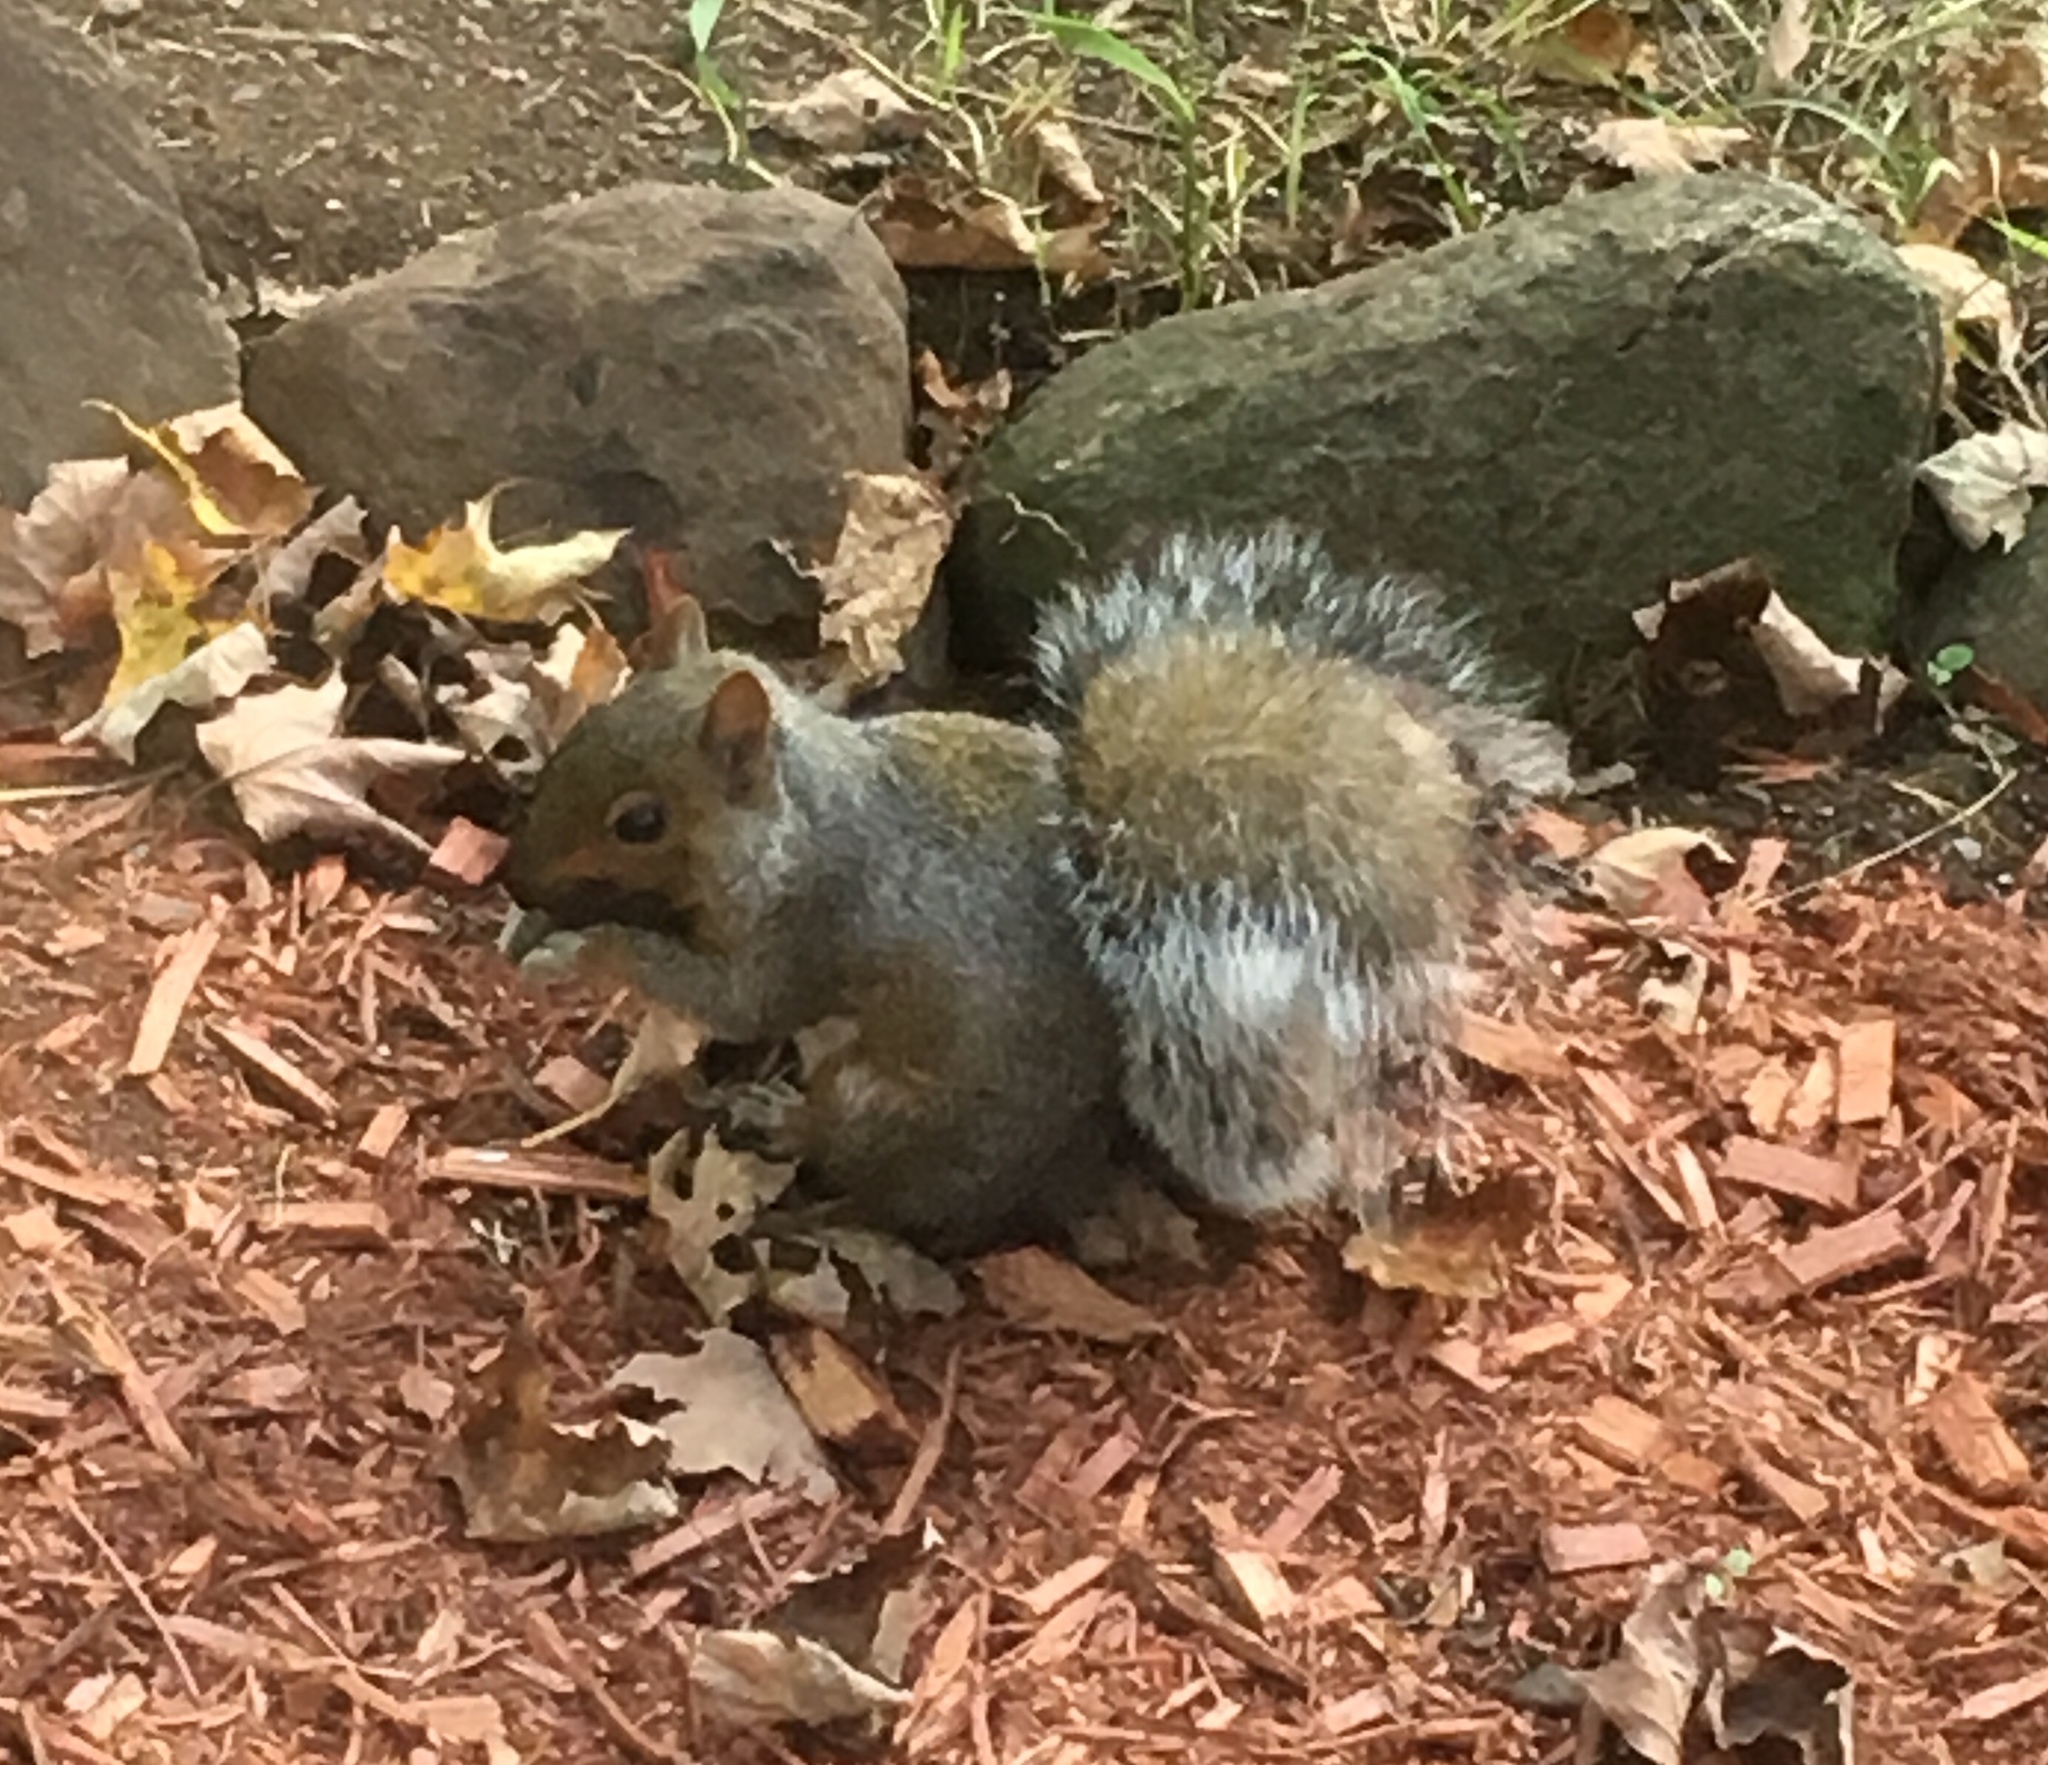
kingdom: Animalia
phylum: Chordata
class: Mammalia
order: Rodentia
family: Sciuridae
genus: Sciurus
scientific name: Sciurus carolinensis
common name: Eastern gray squirrel
